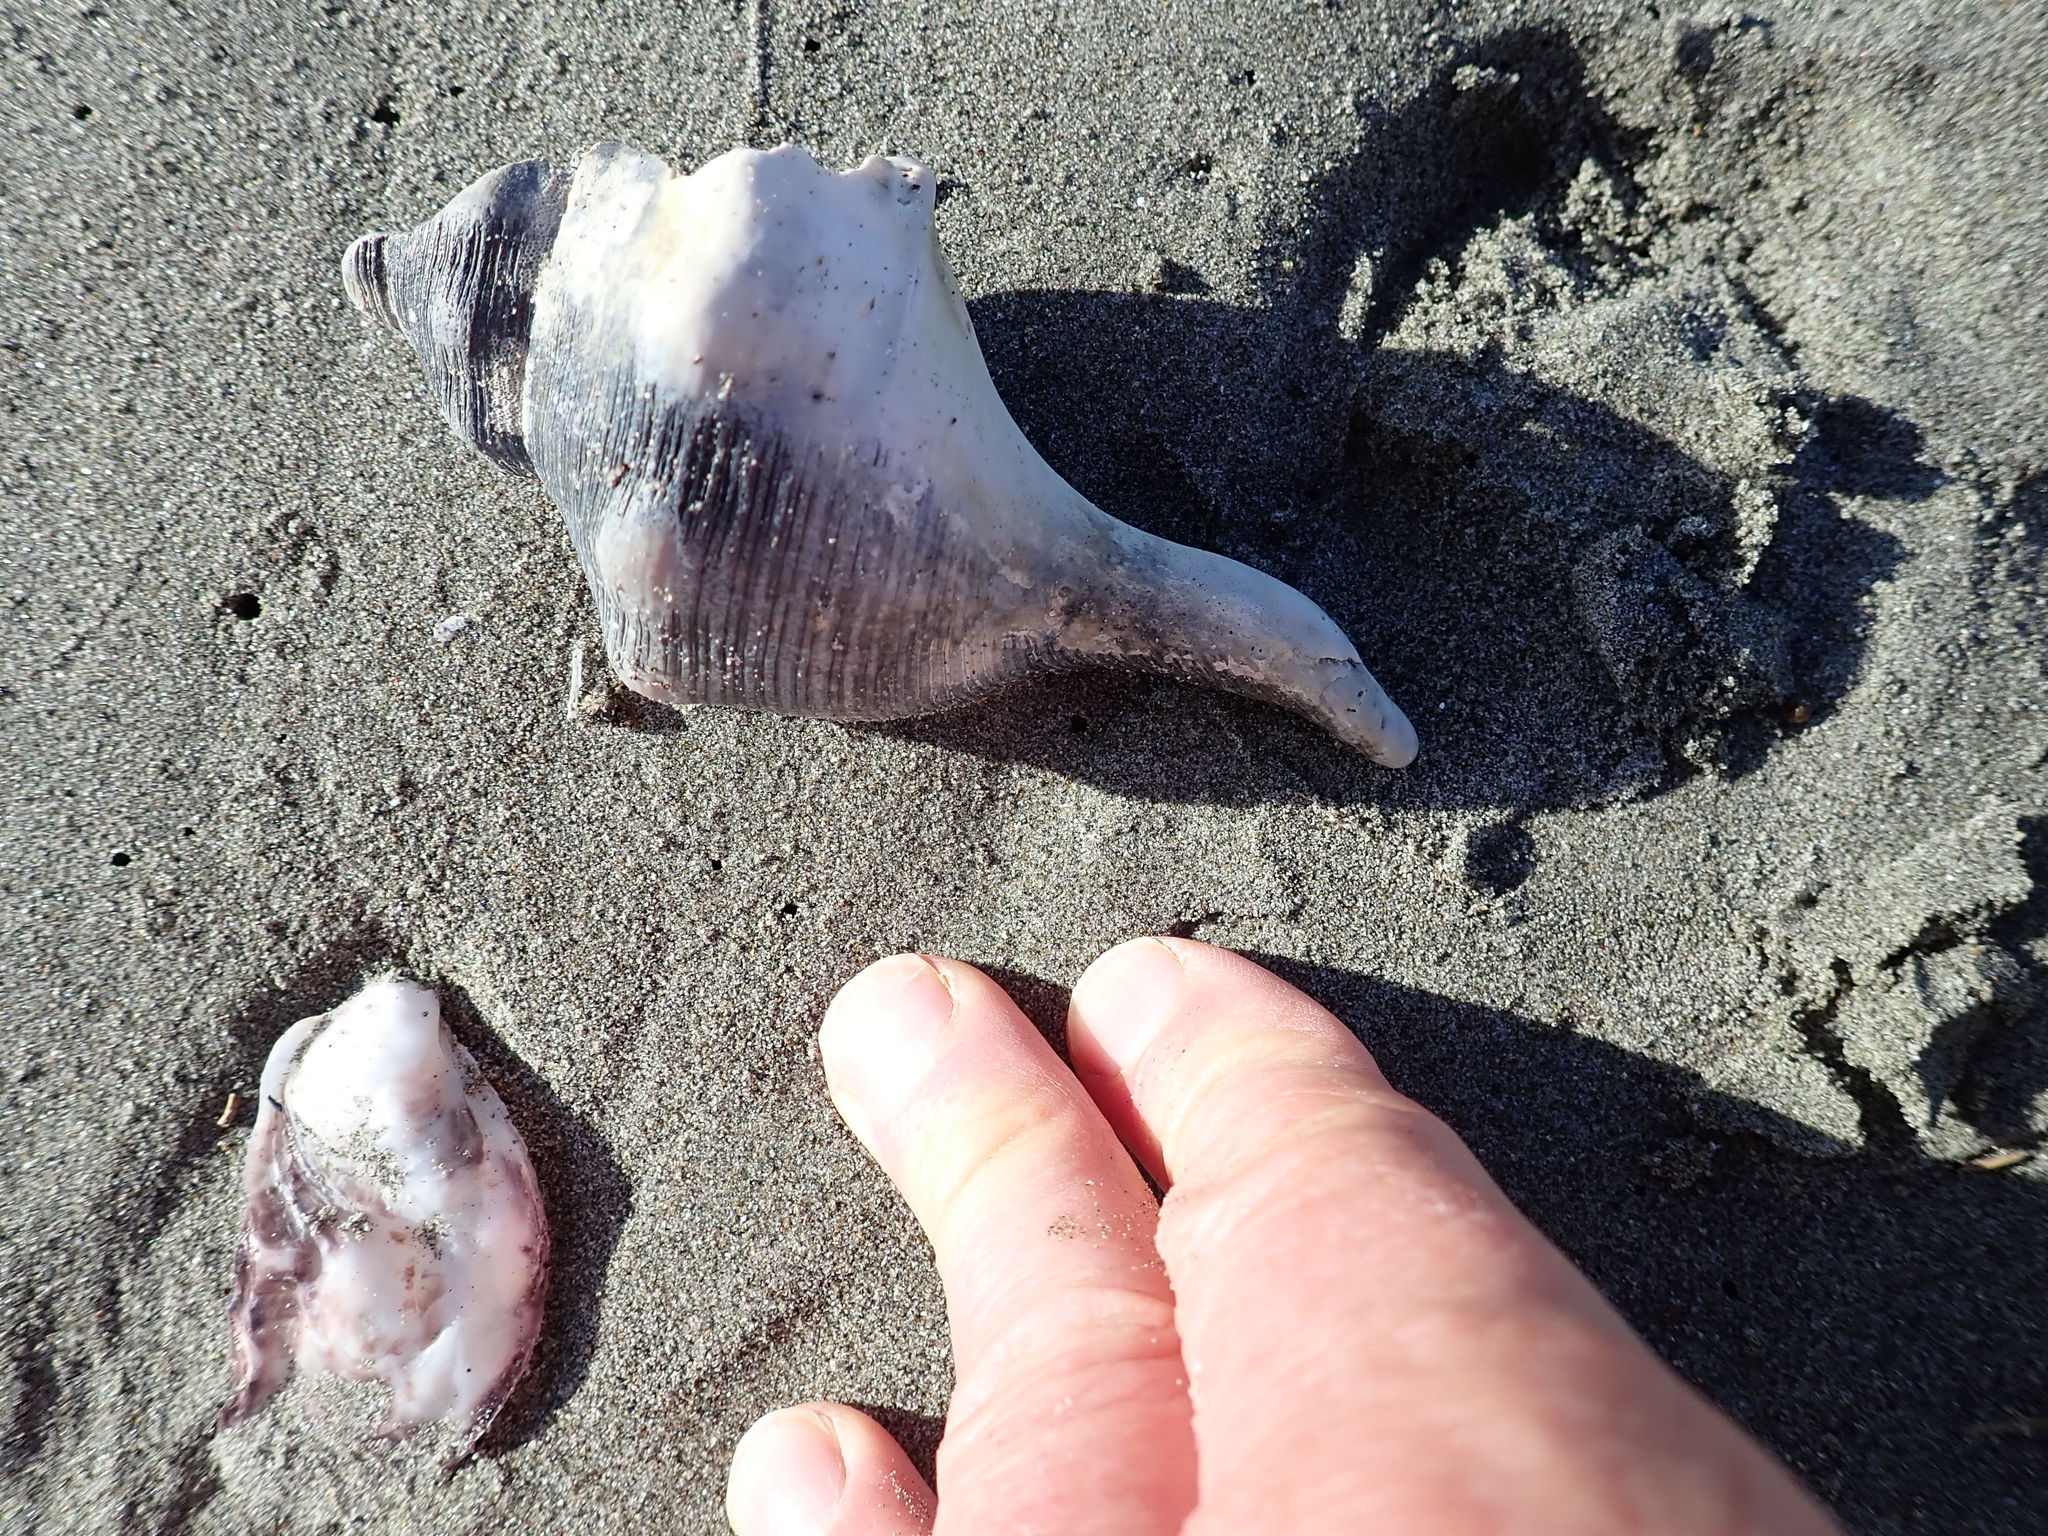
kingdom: Animalia
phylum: Mollusca
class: Gastropoda
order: Neogastropoda
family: Austrosiphonidae
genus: Penion
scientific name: Penion sulcatus
